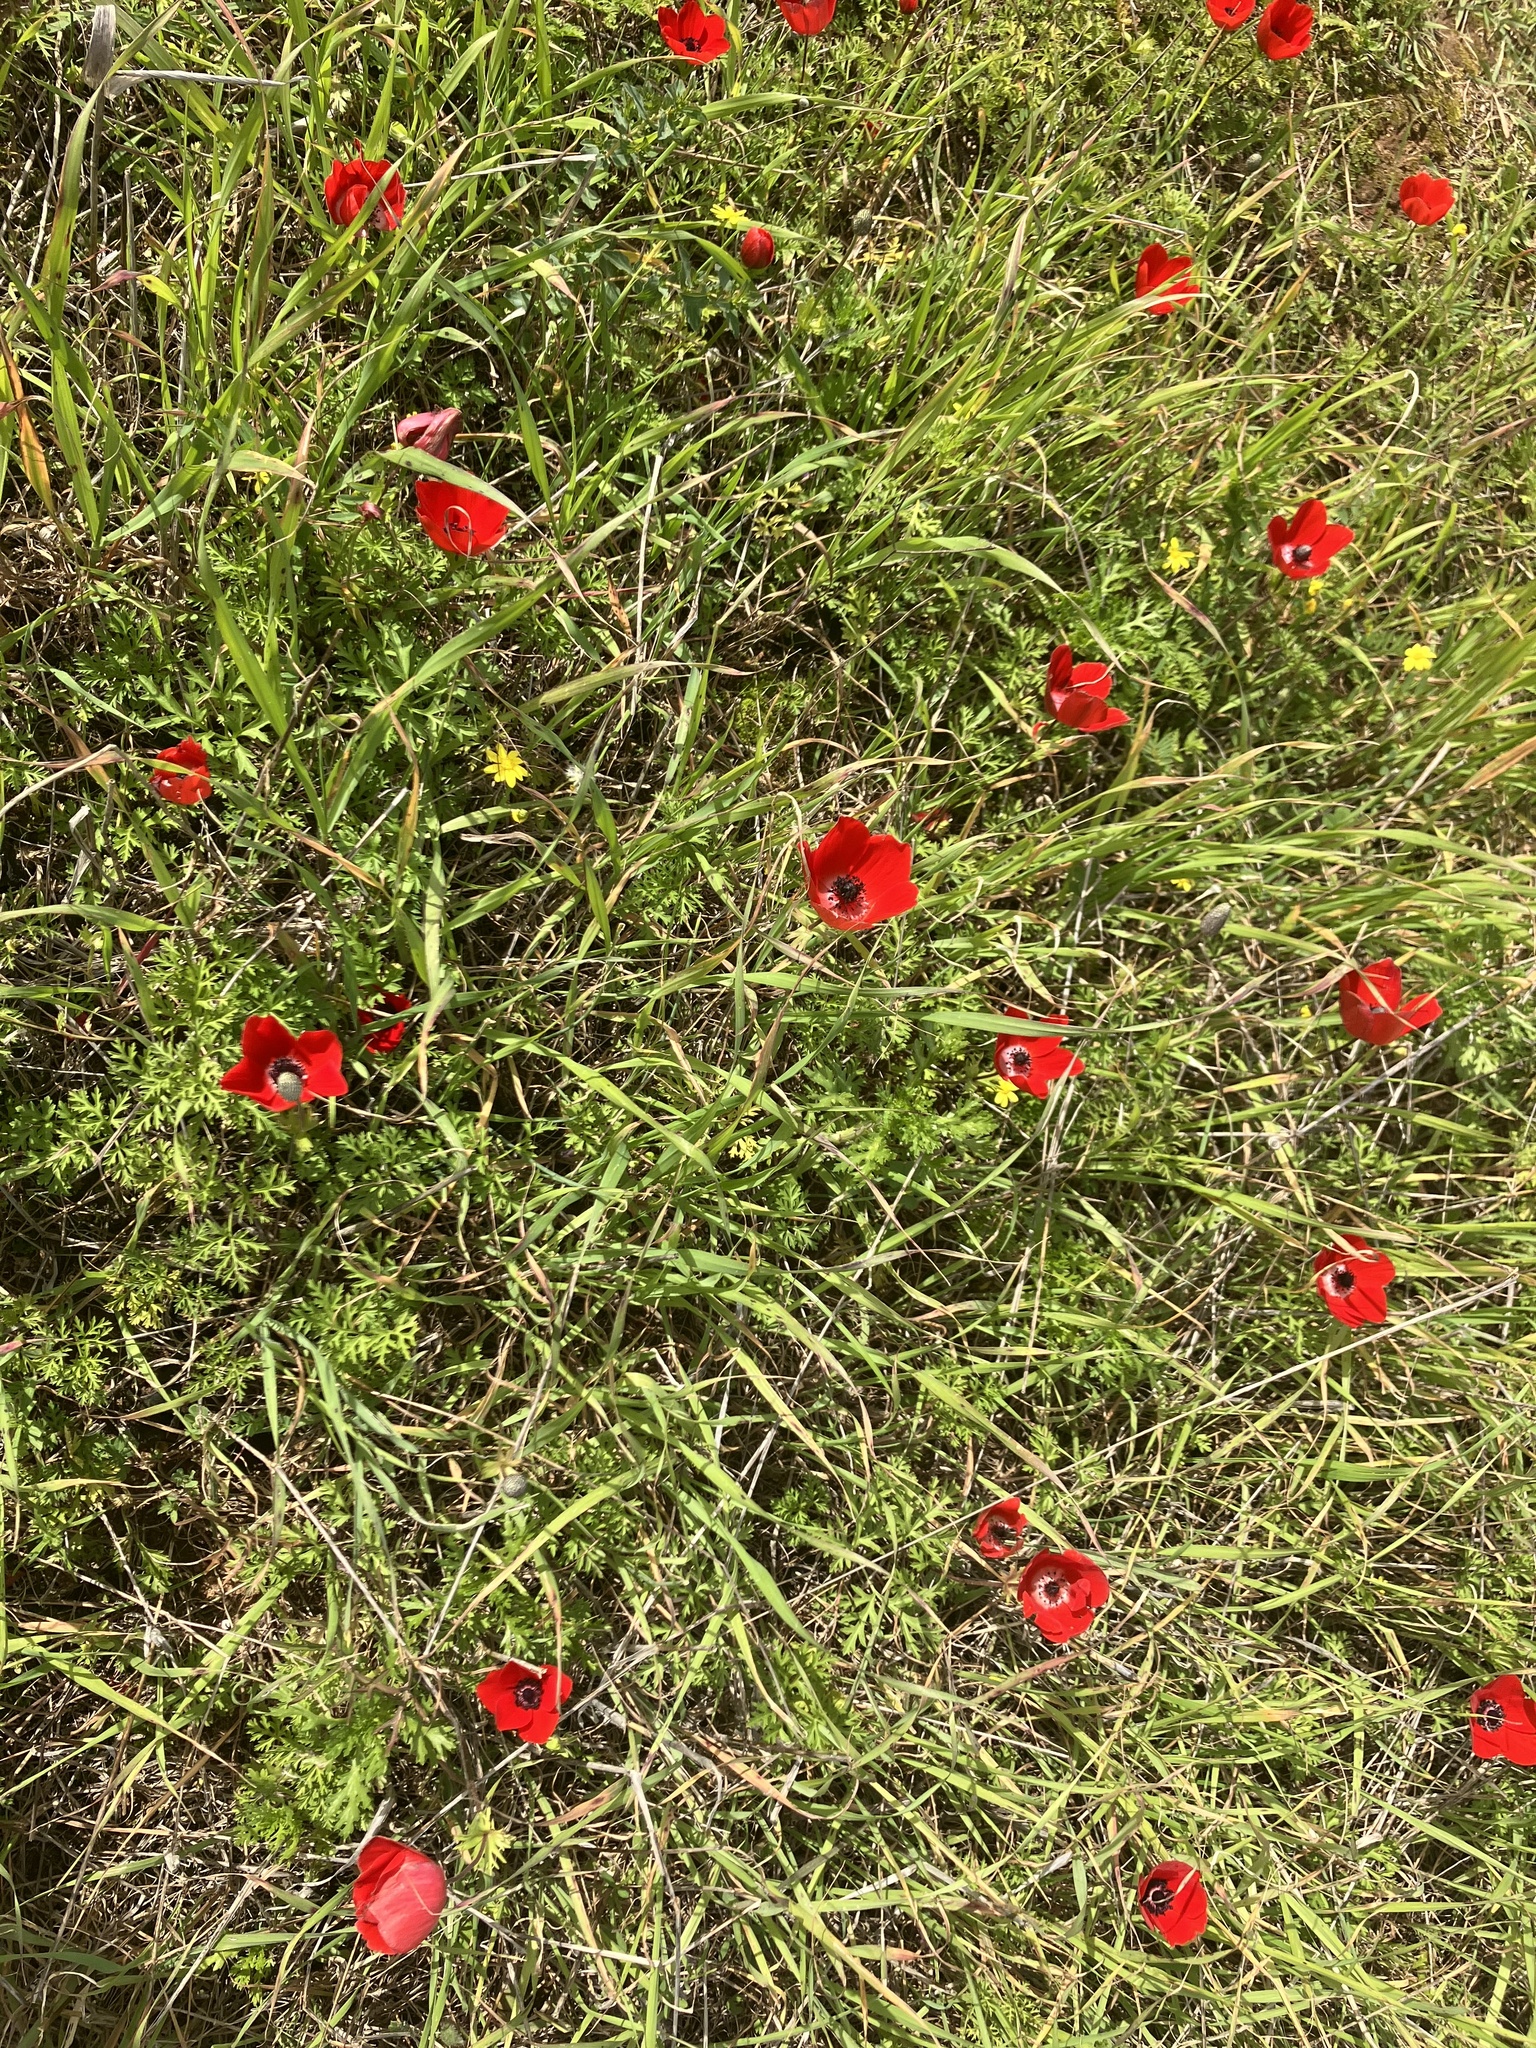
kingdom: Plantae
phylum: Tracheophyta
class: Magnoliopsida
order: Ranunculales
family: Ranunculaceae
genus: Anemone
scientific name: Anemone coronaria
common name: Poppy anemone
